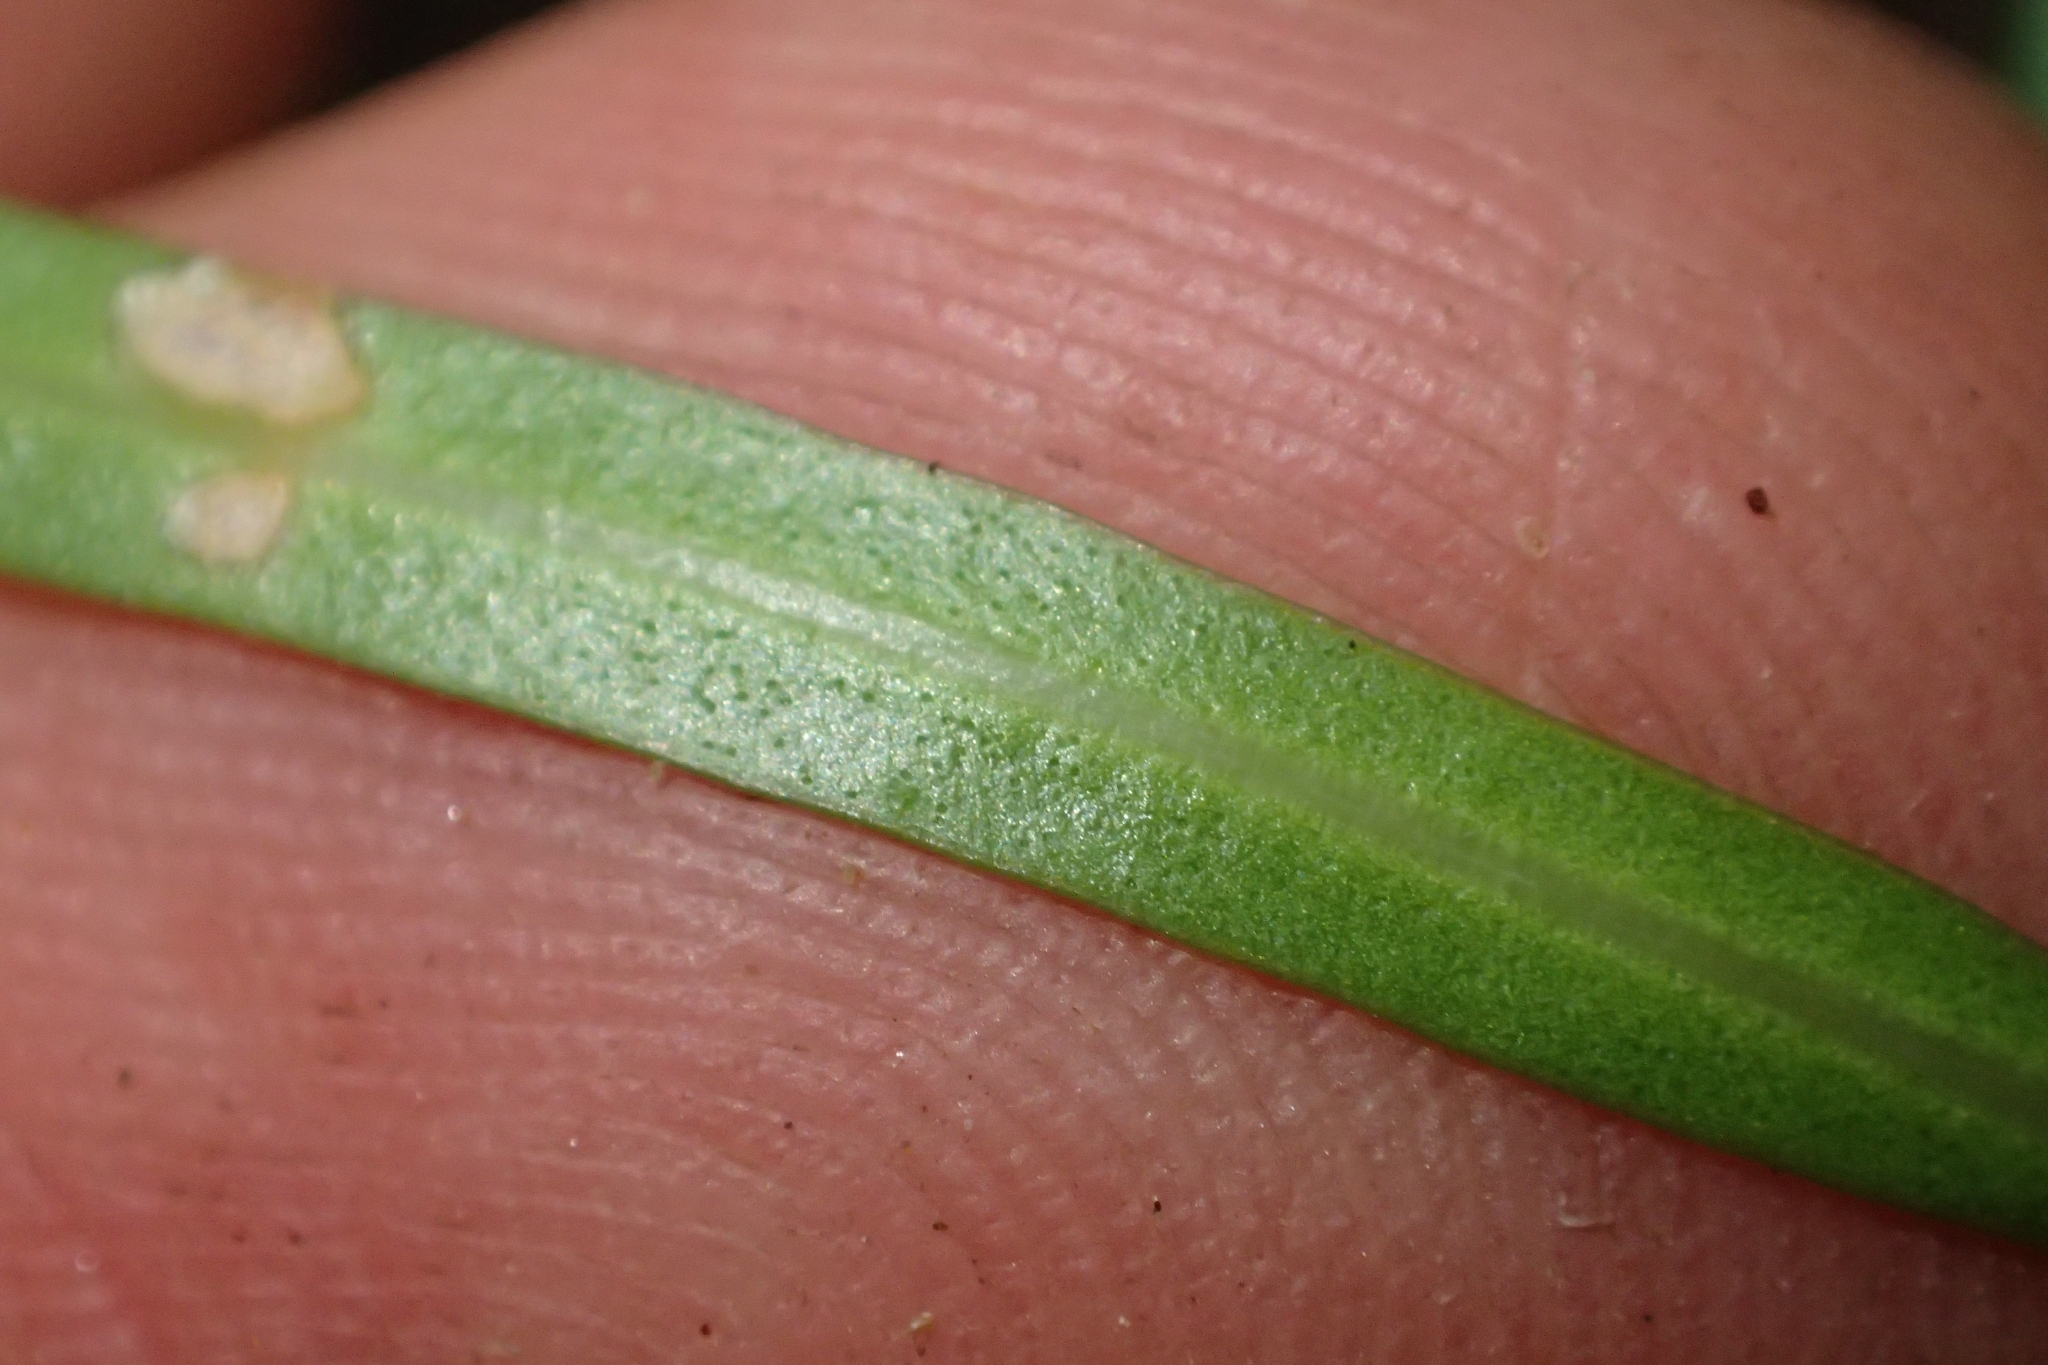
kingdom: Plantae
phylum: Tracheophyta
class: Magnoliopsida
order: Lamiales
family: Oleaceae
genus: Nestegis
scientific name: Nestegis lanceolata
